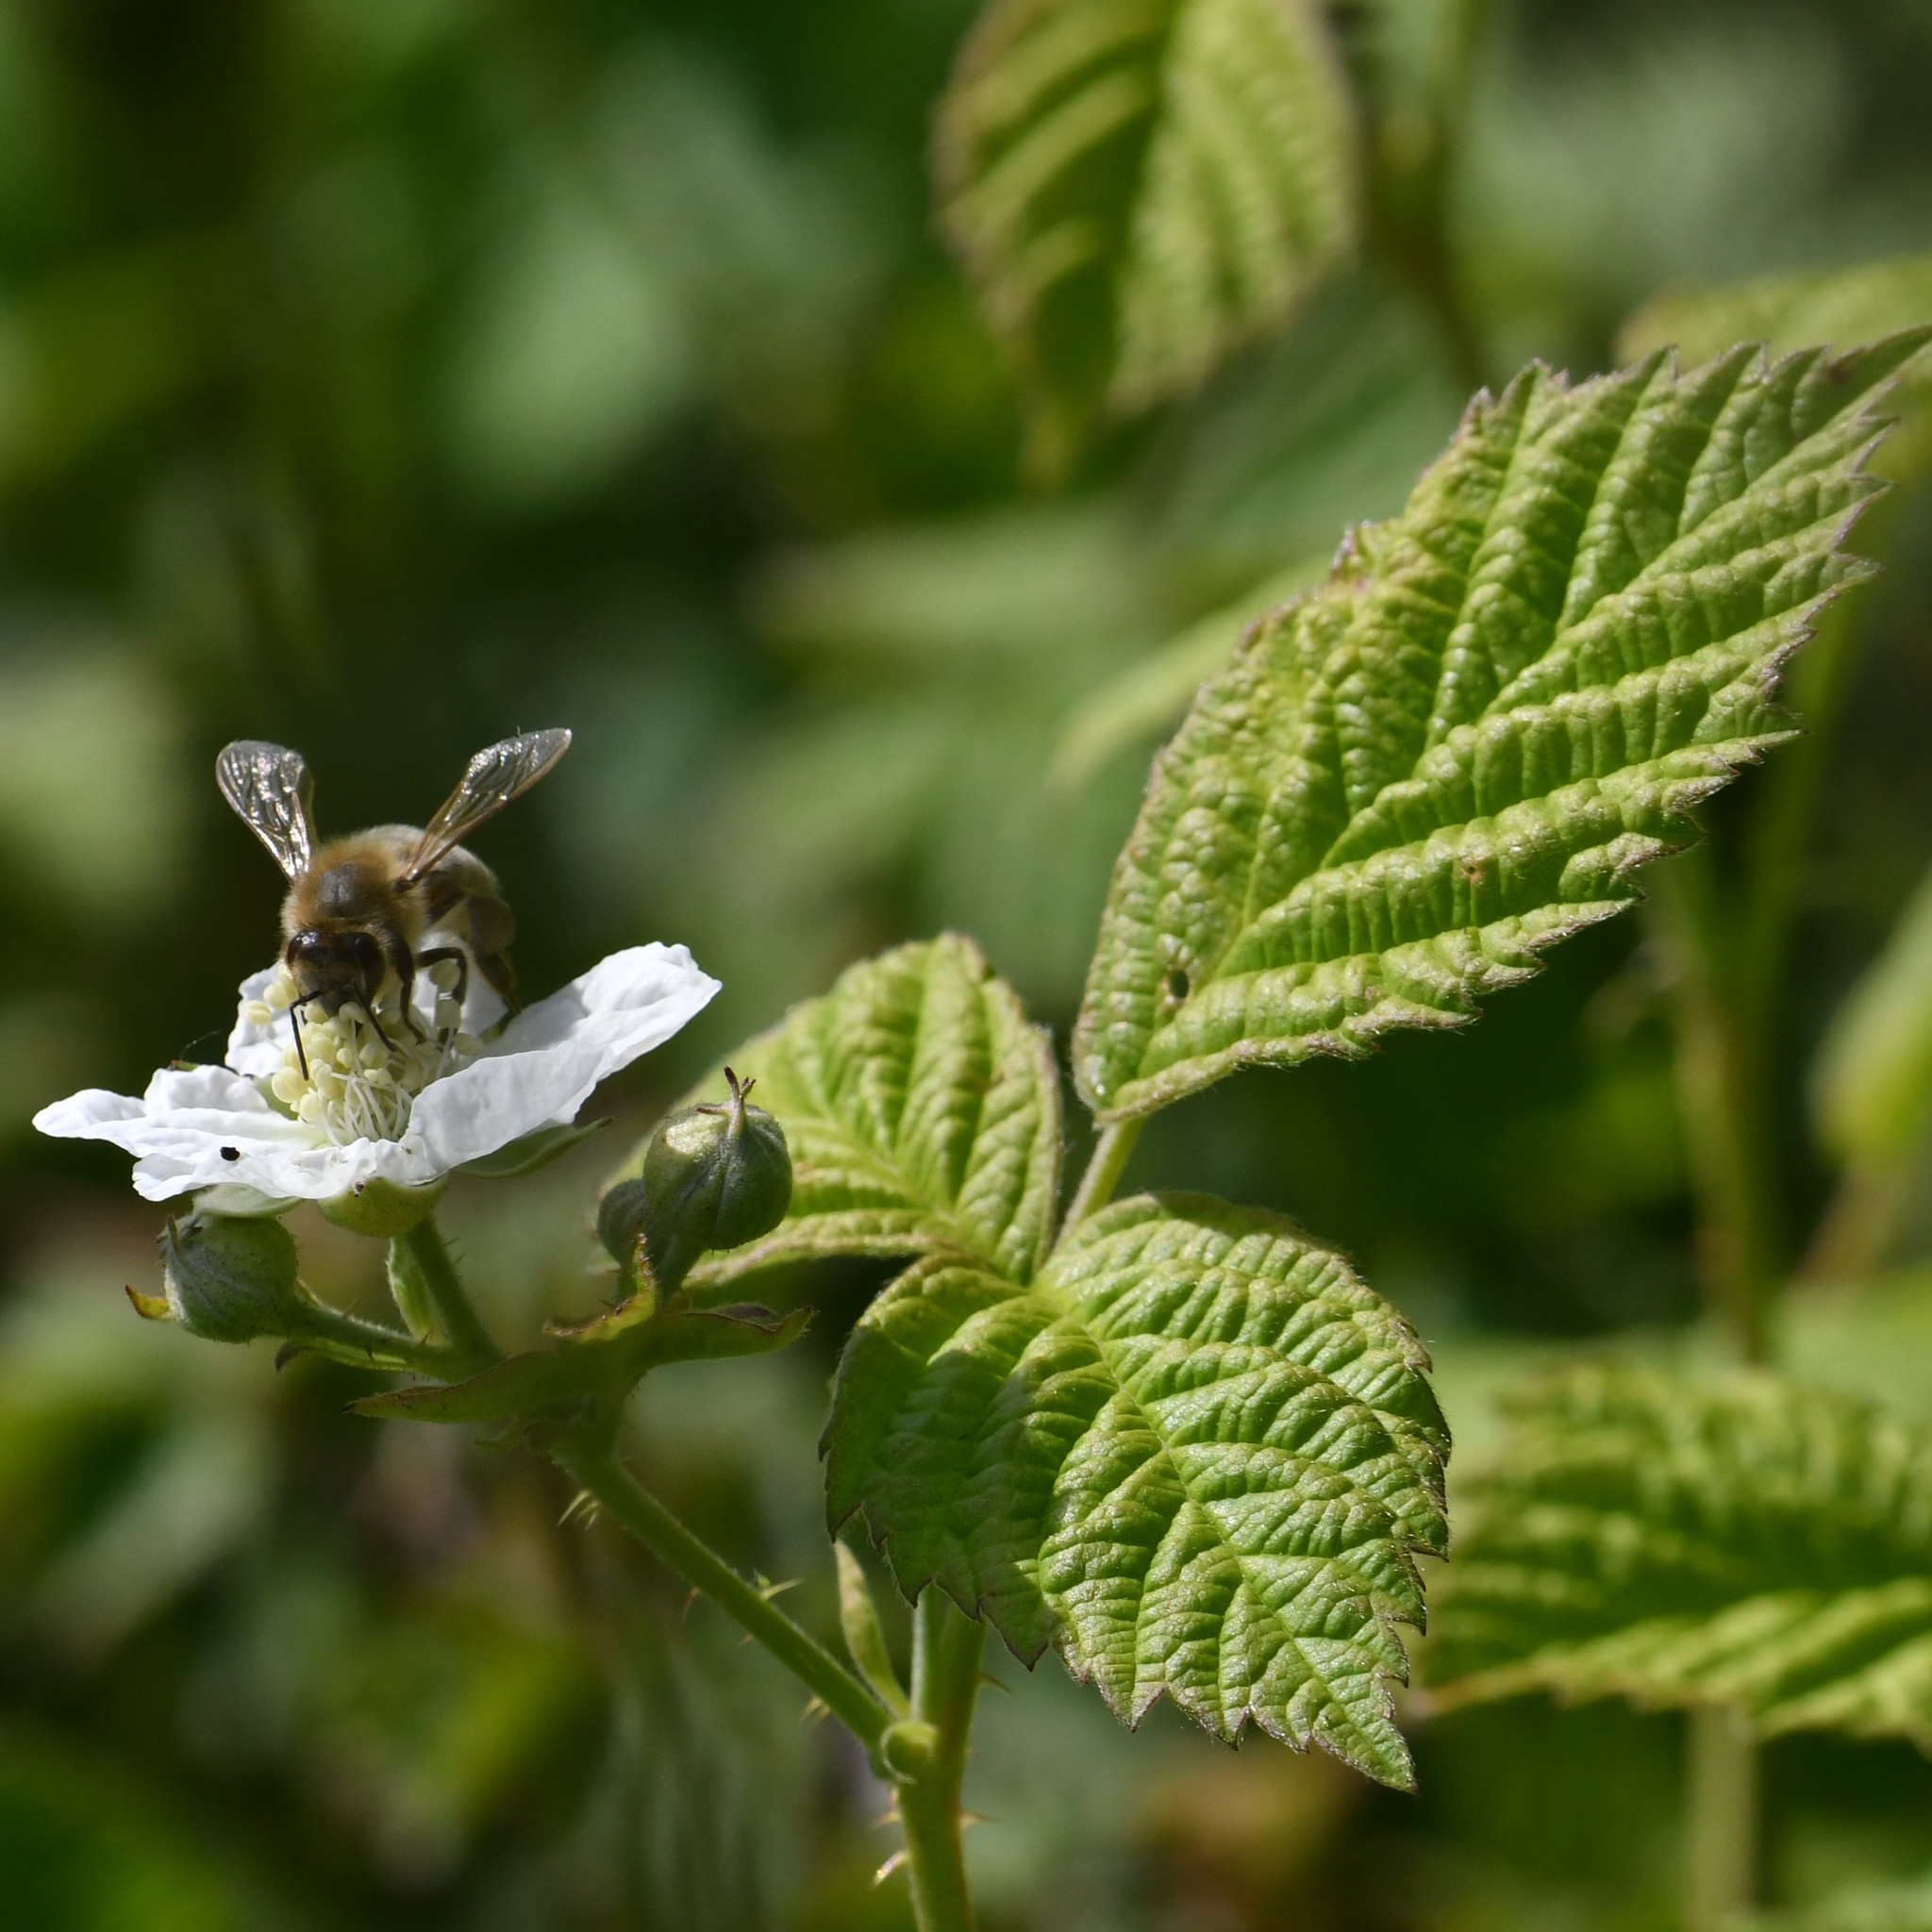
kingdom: Animalia
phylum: Arthropoda
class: Insecta
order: Hymenoptera
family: Apidae
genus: Apis
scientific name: Apis mellifera
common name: Honey bee
